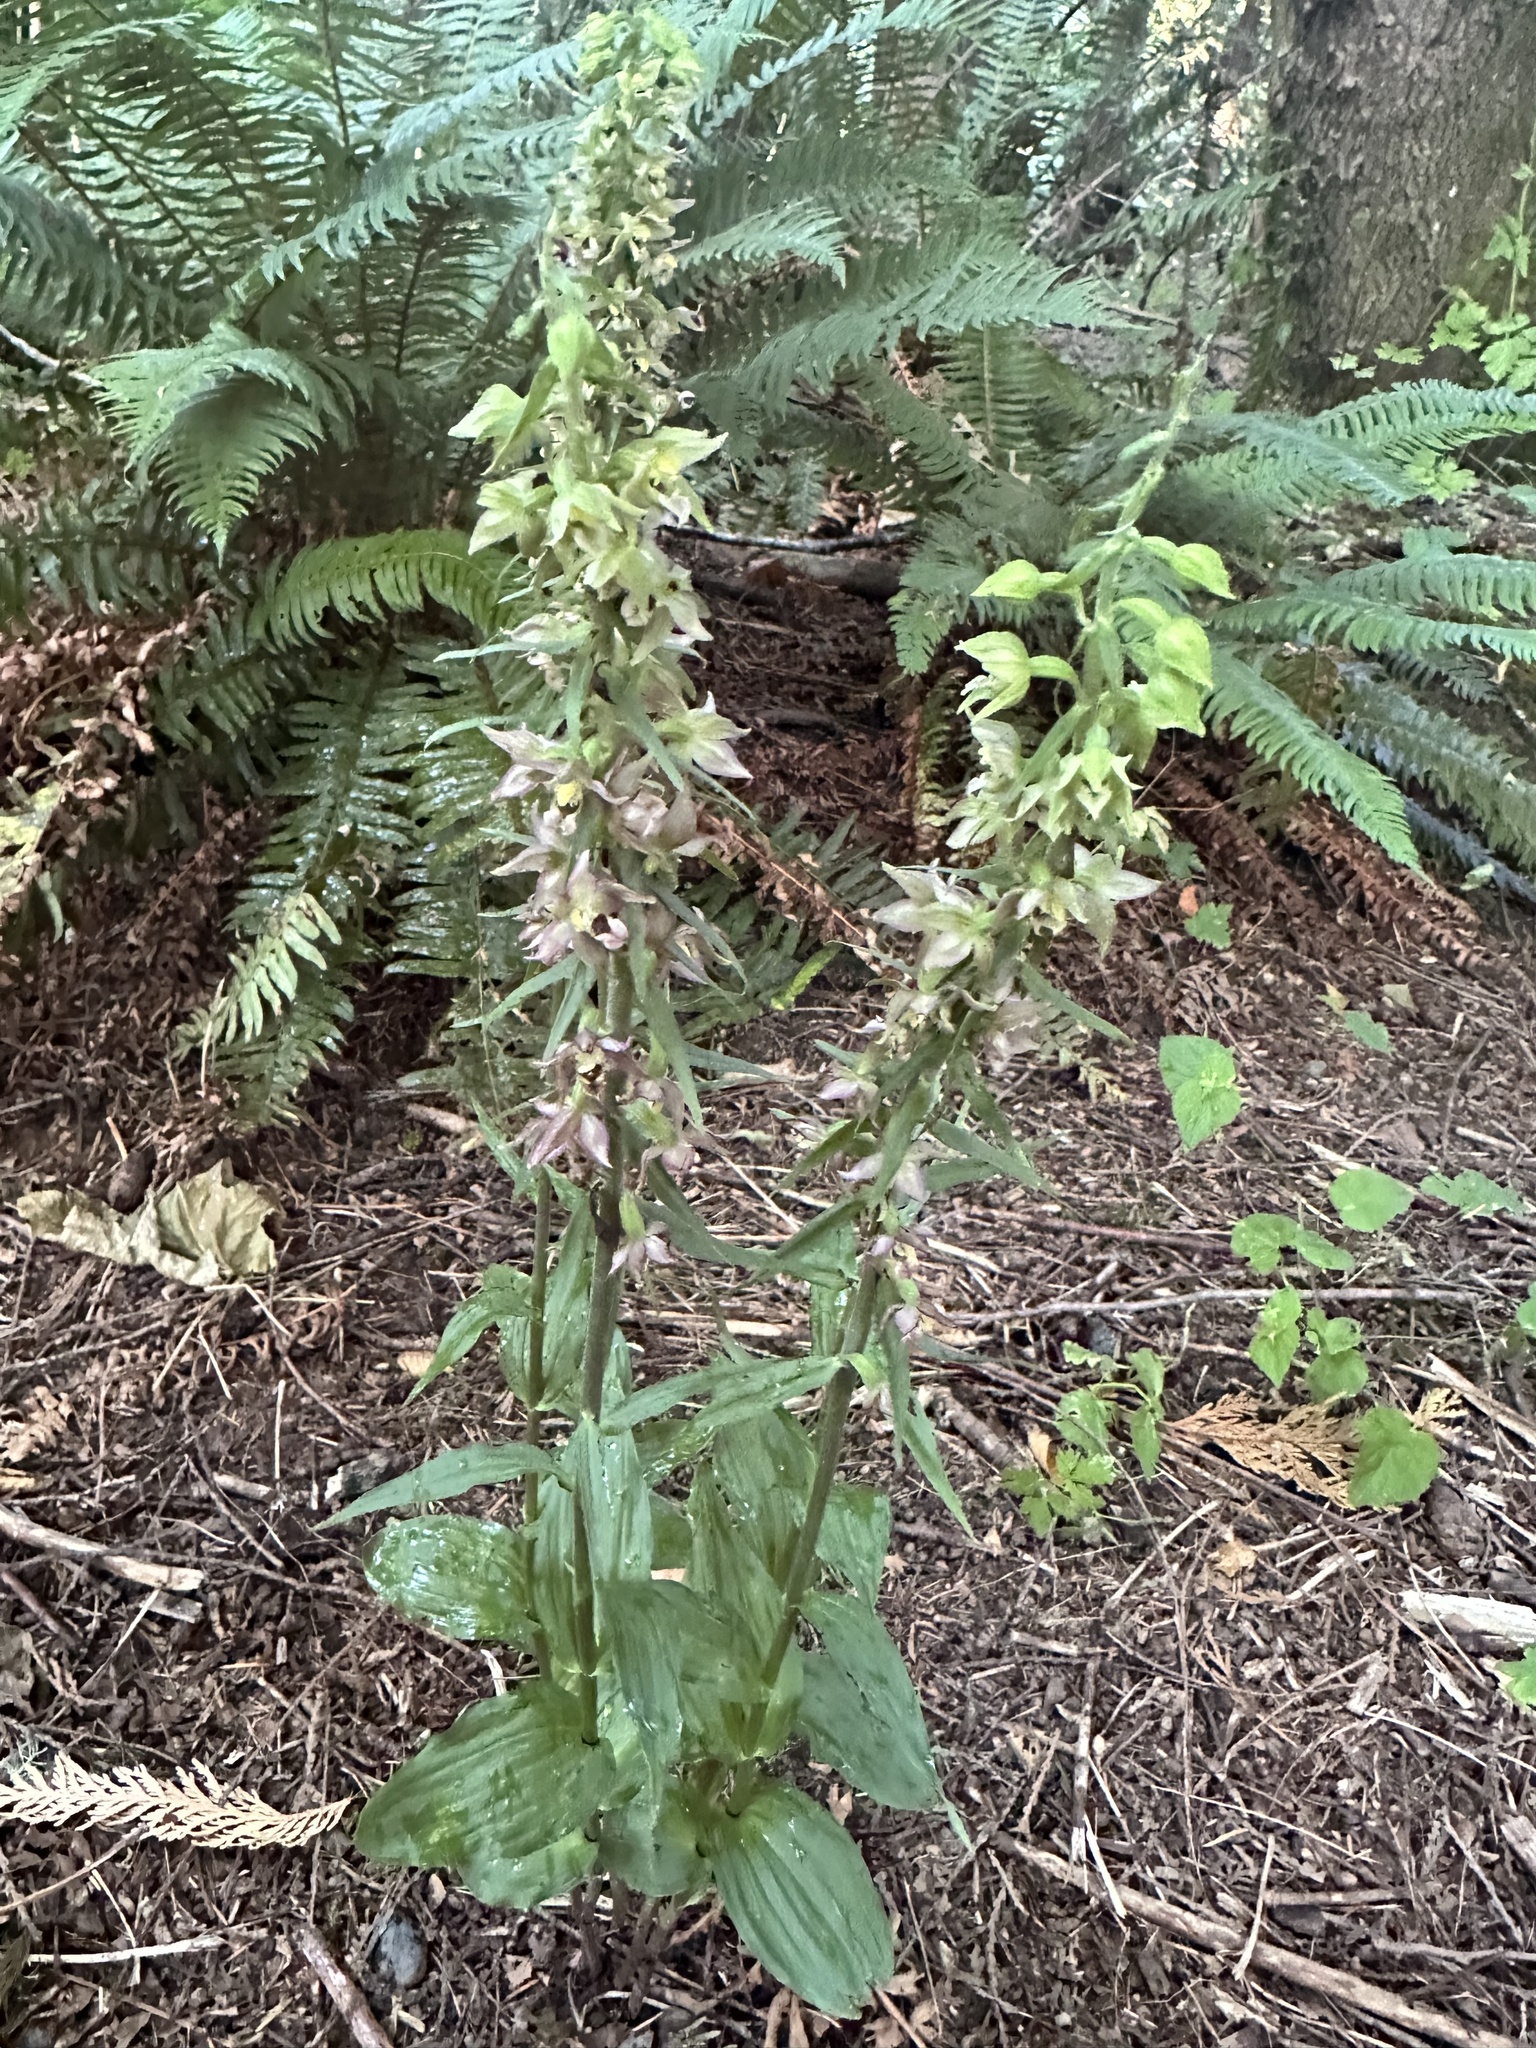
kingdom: Plantae
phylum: Tracheophyta
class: Liliopsida
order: Asparagales
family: Orchidaceae
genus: Epipactis
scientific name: Epipactis helleborine
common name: Broad-leaved helleborine
